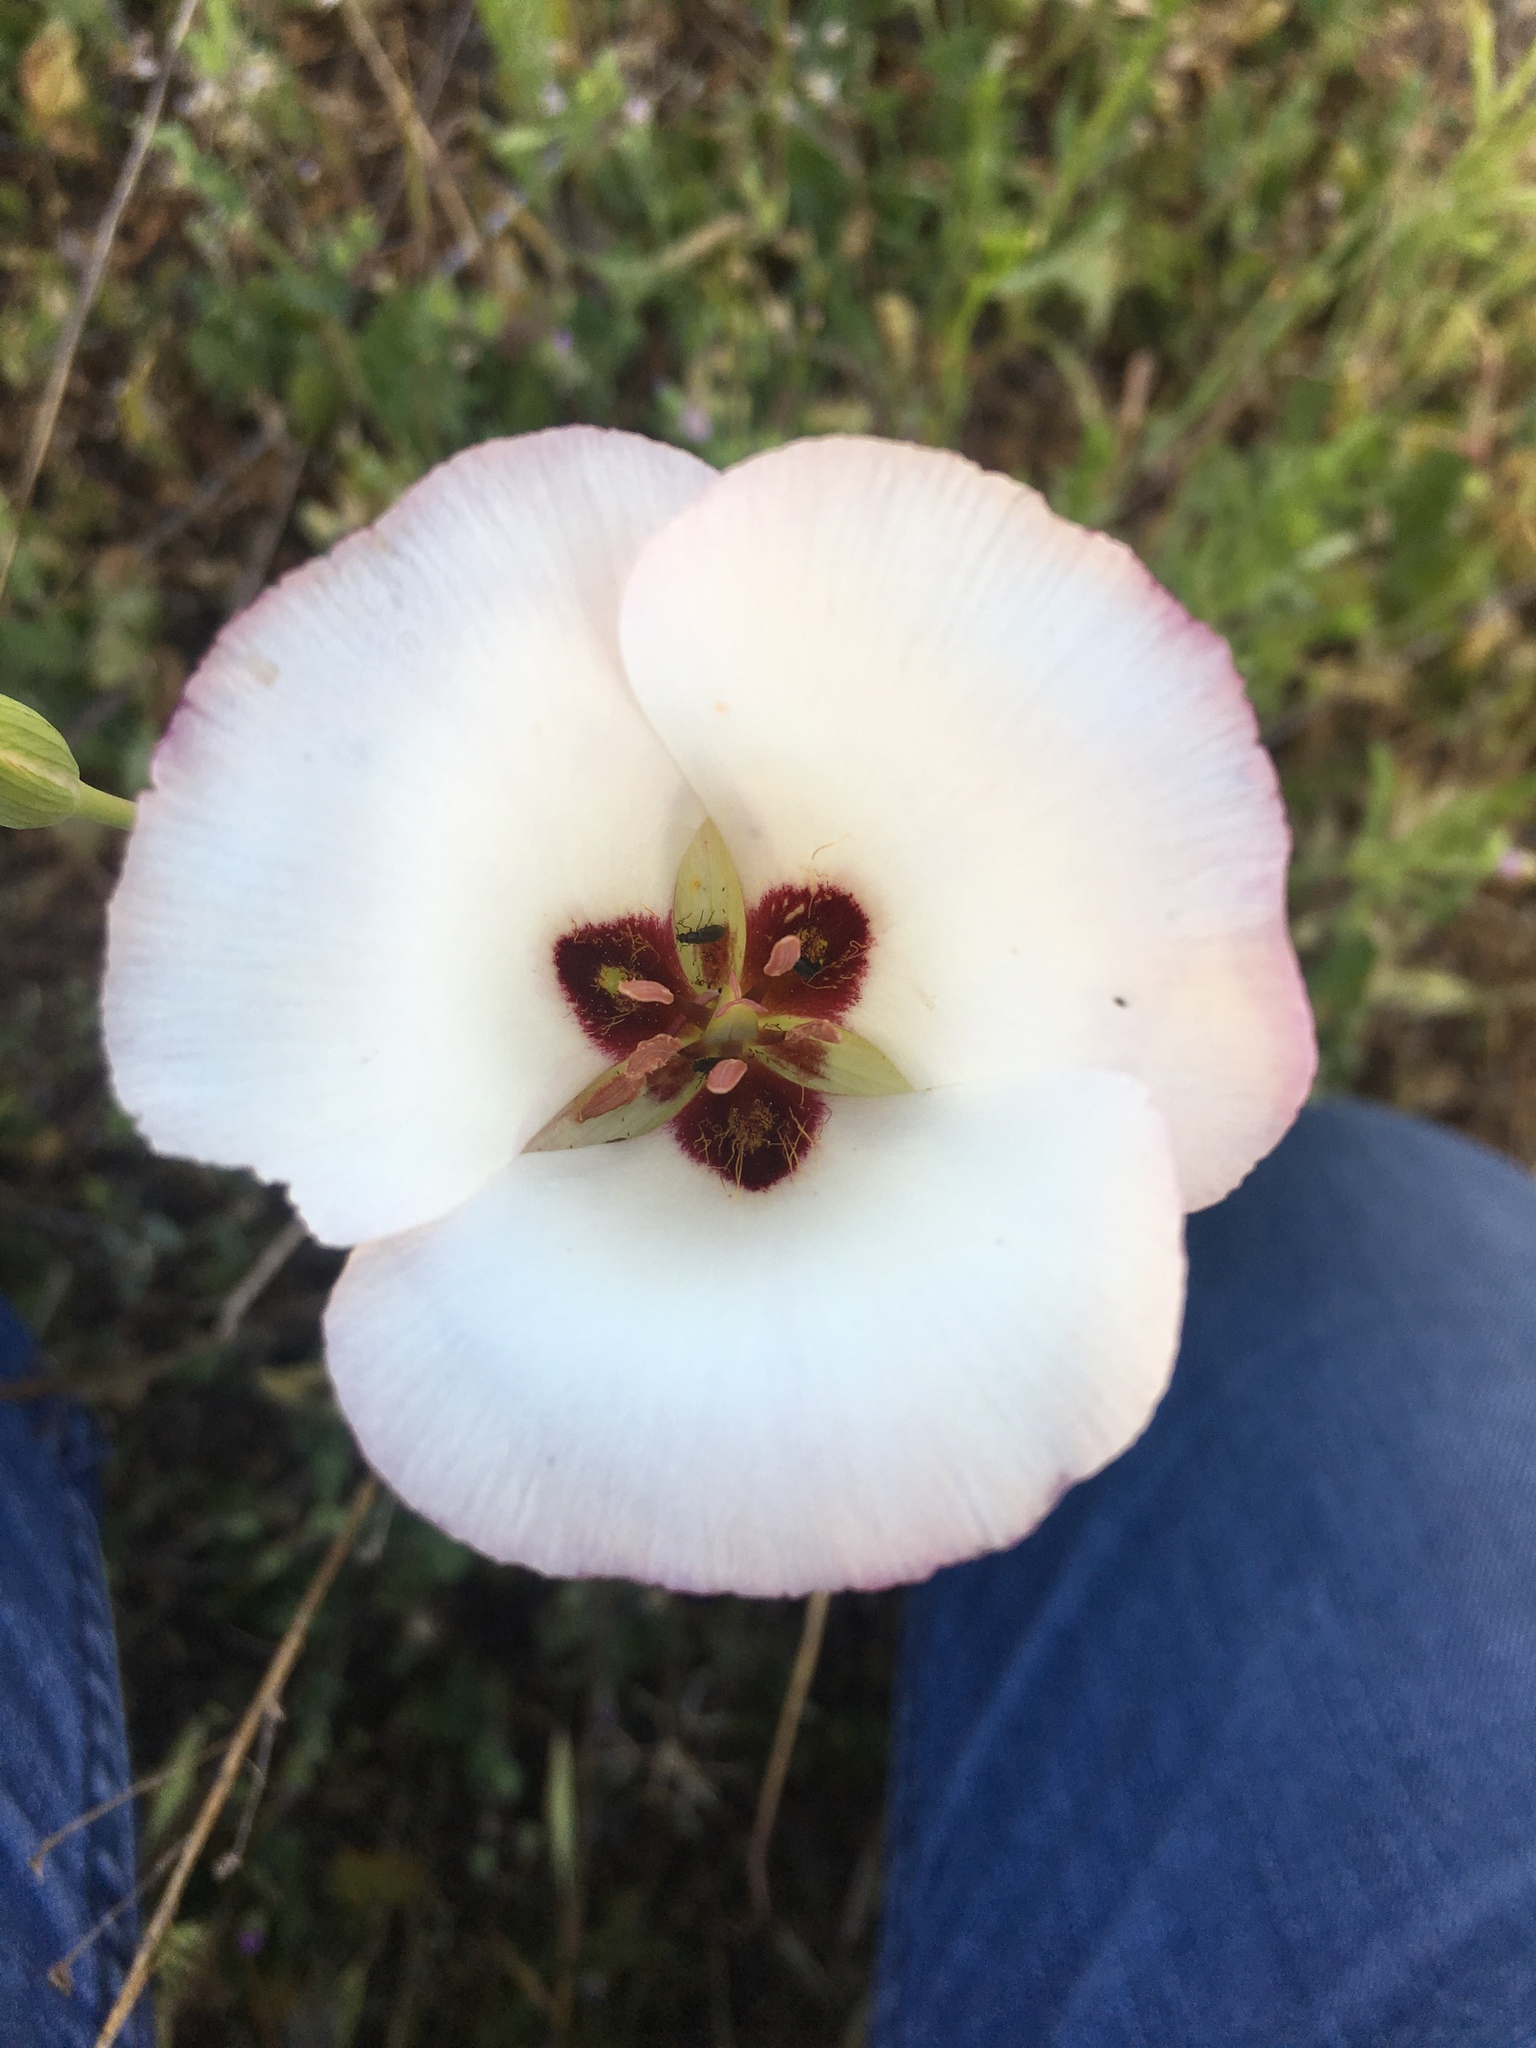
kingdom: Plantae
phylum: Tracheophyta
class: Liliopsida
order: Liliales
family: Liliaceae
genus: Calochortus
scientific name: Calochortus catalinae
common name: Catalina mariposa-lily
